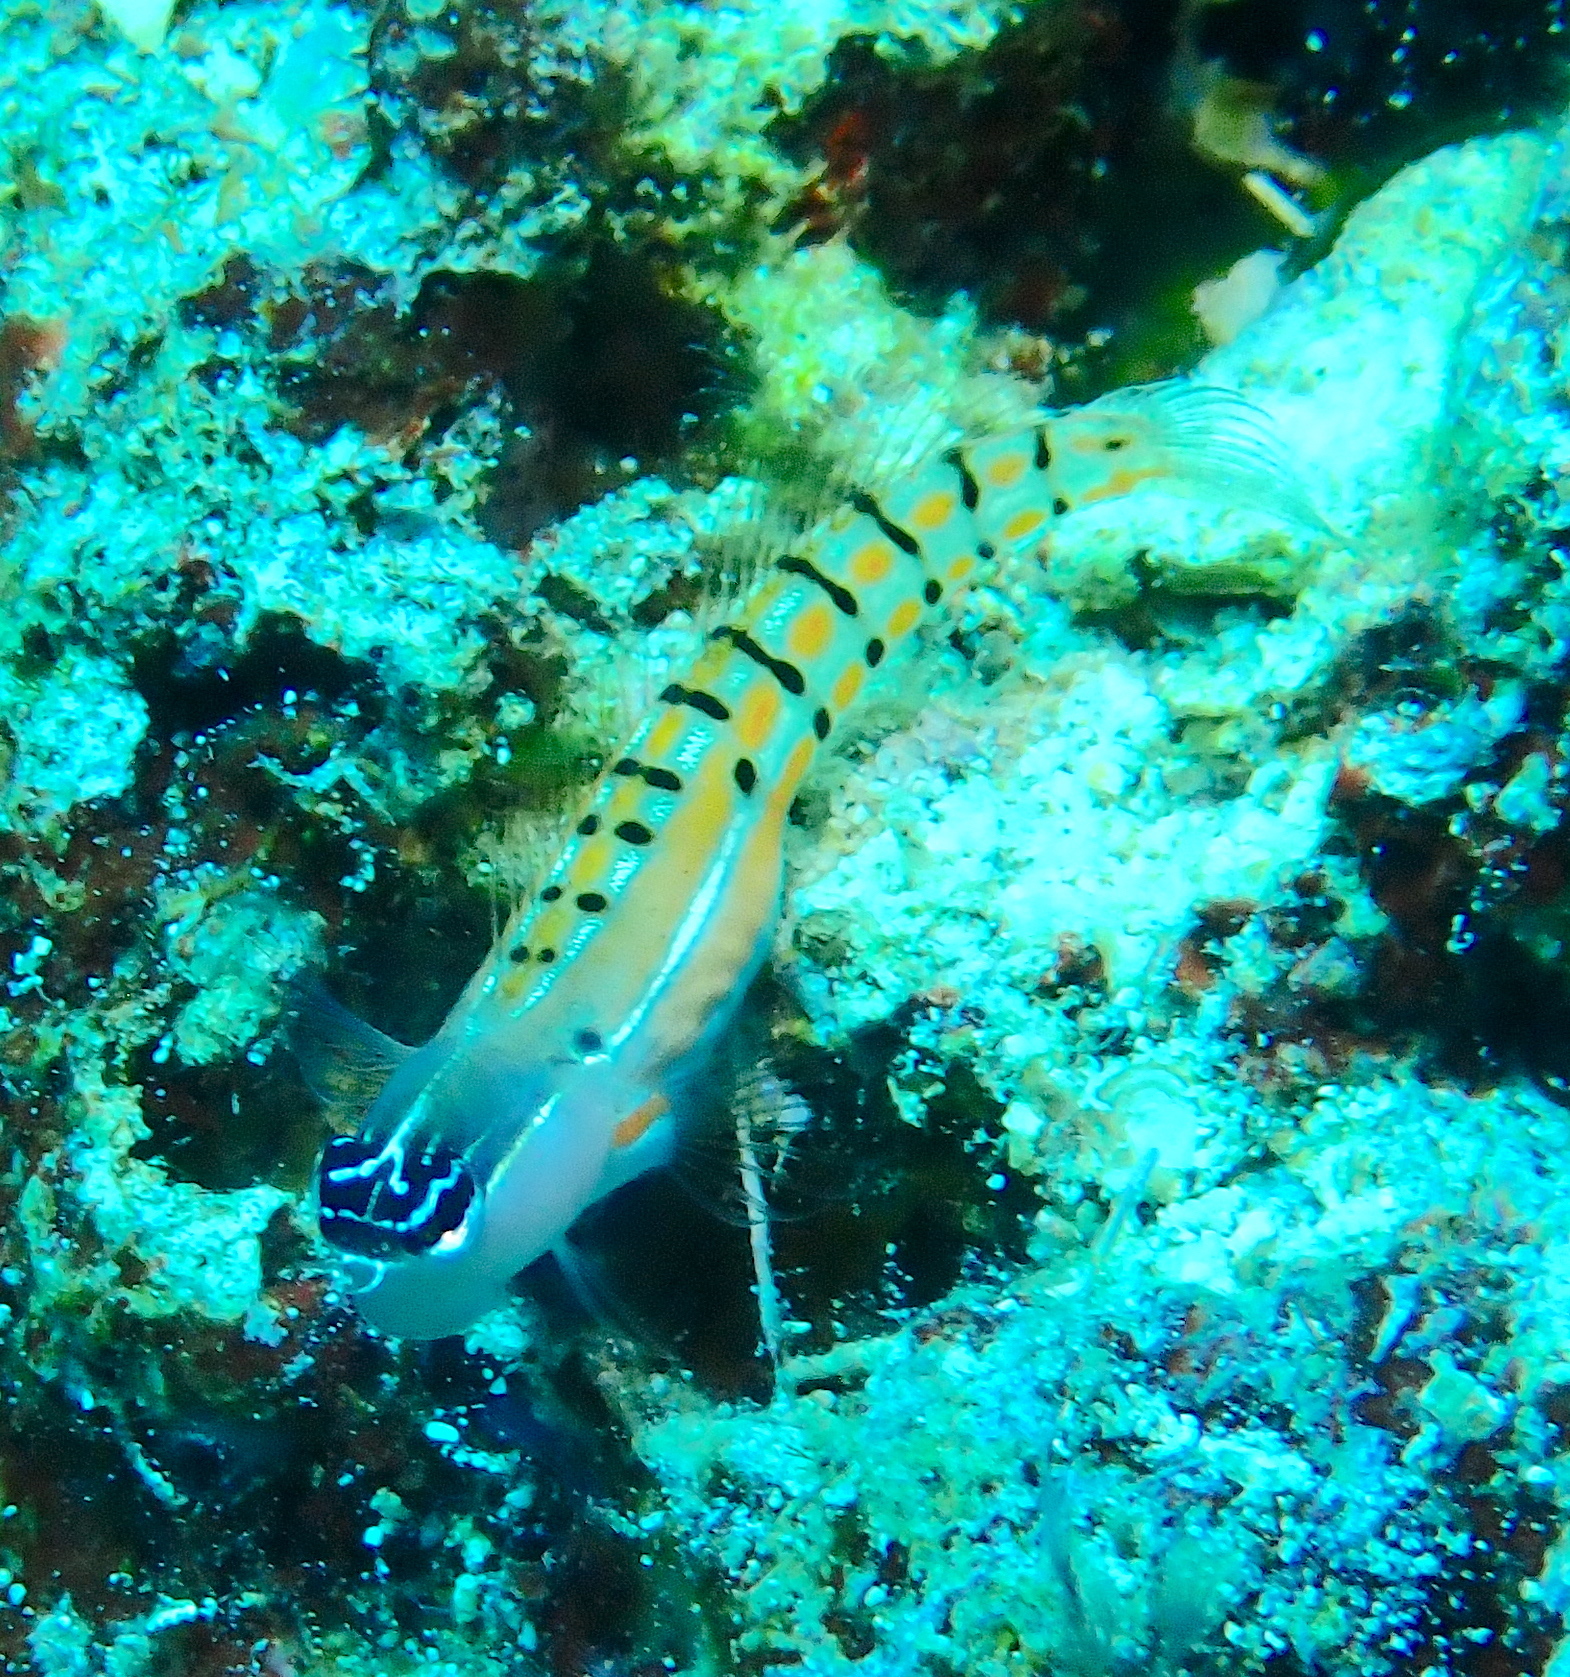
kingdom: Animalia
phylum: Chordata
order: Perciformes
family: Blenniidae
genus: Ecsenius
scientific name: Ecsenius axelrodi
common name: Axelrod's clown blenny
